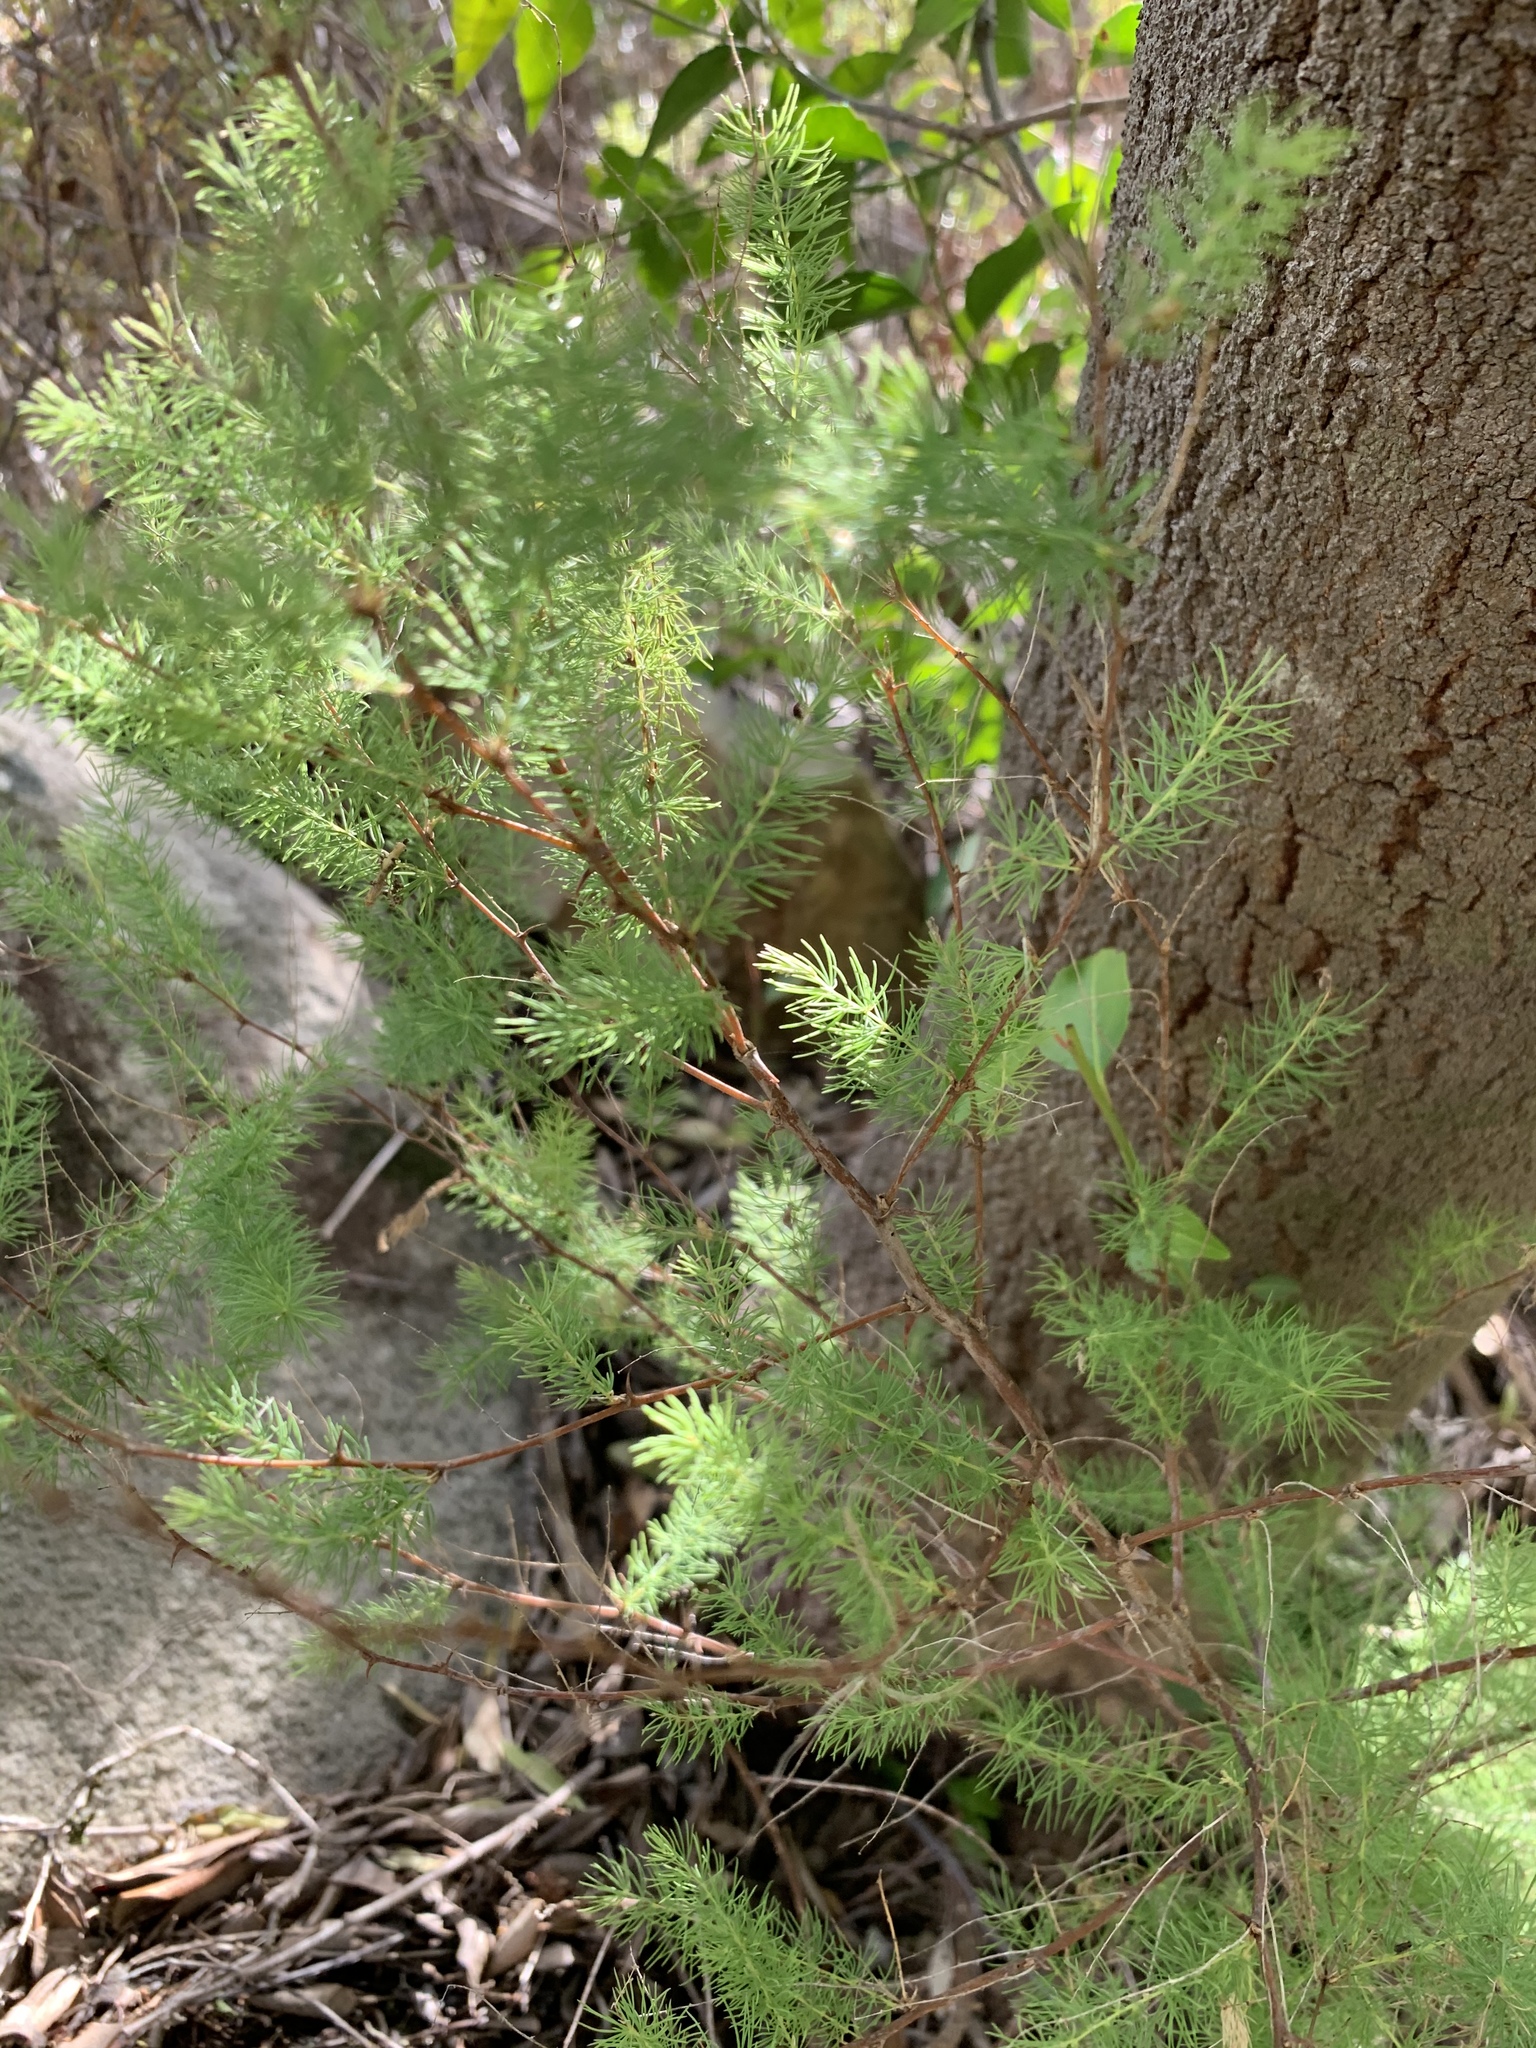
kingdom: Plantae
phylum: Tracheophyta
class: Liliopsida
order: Asparagales
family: Asparagaceae
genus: Asparagus
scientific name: Asparagus rubicundus
